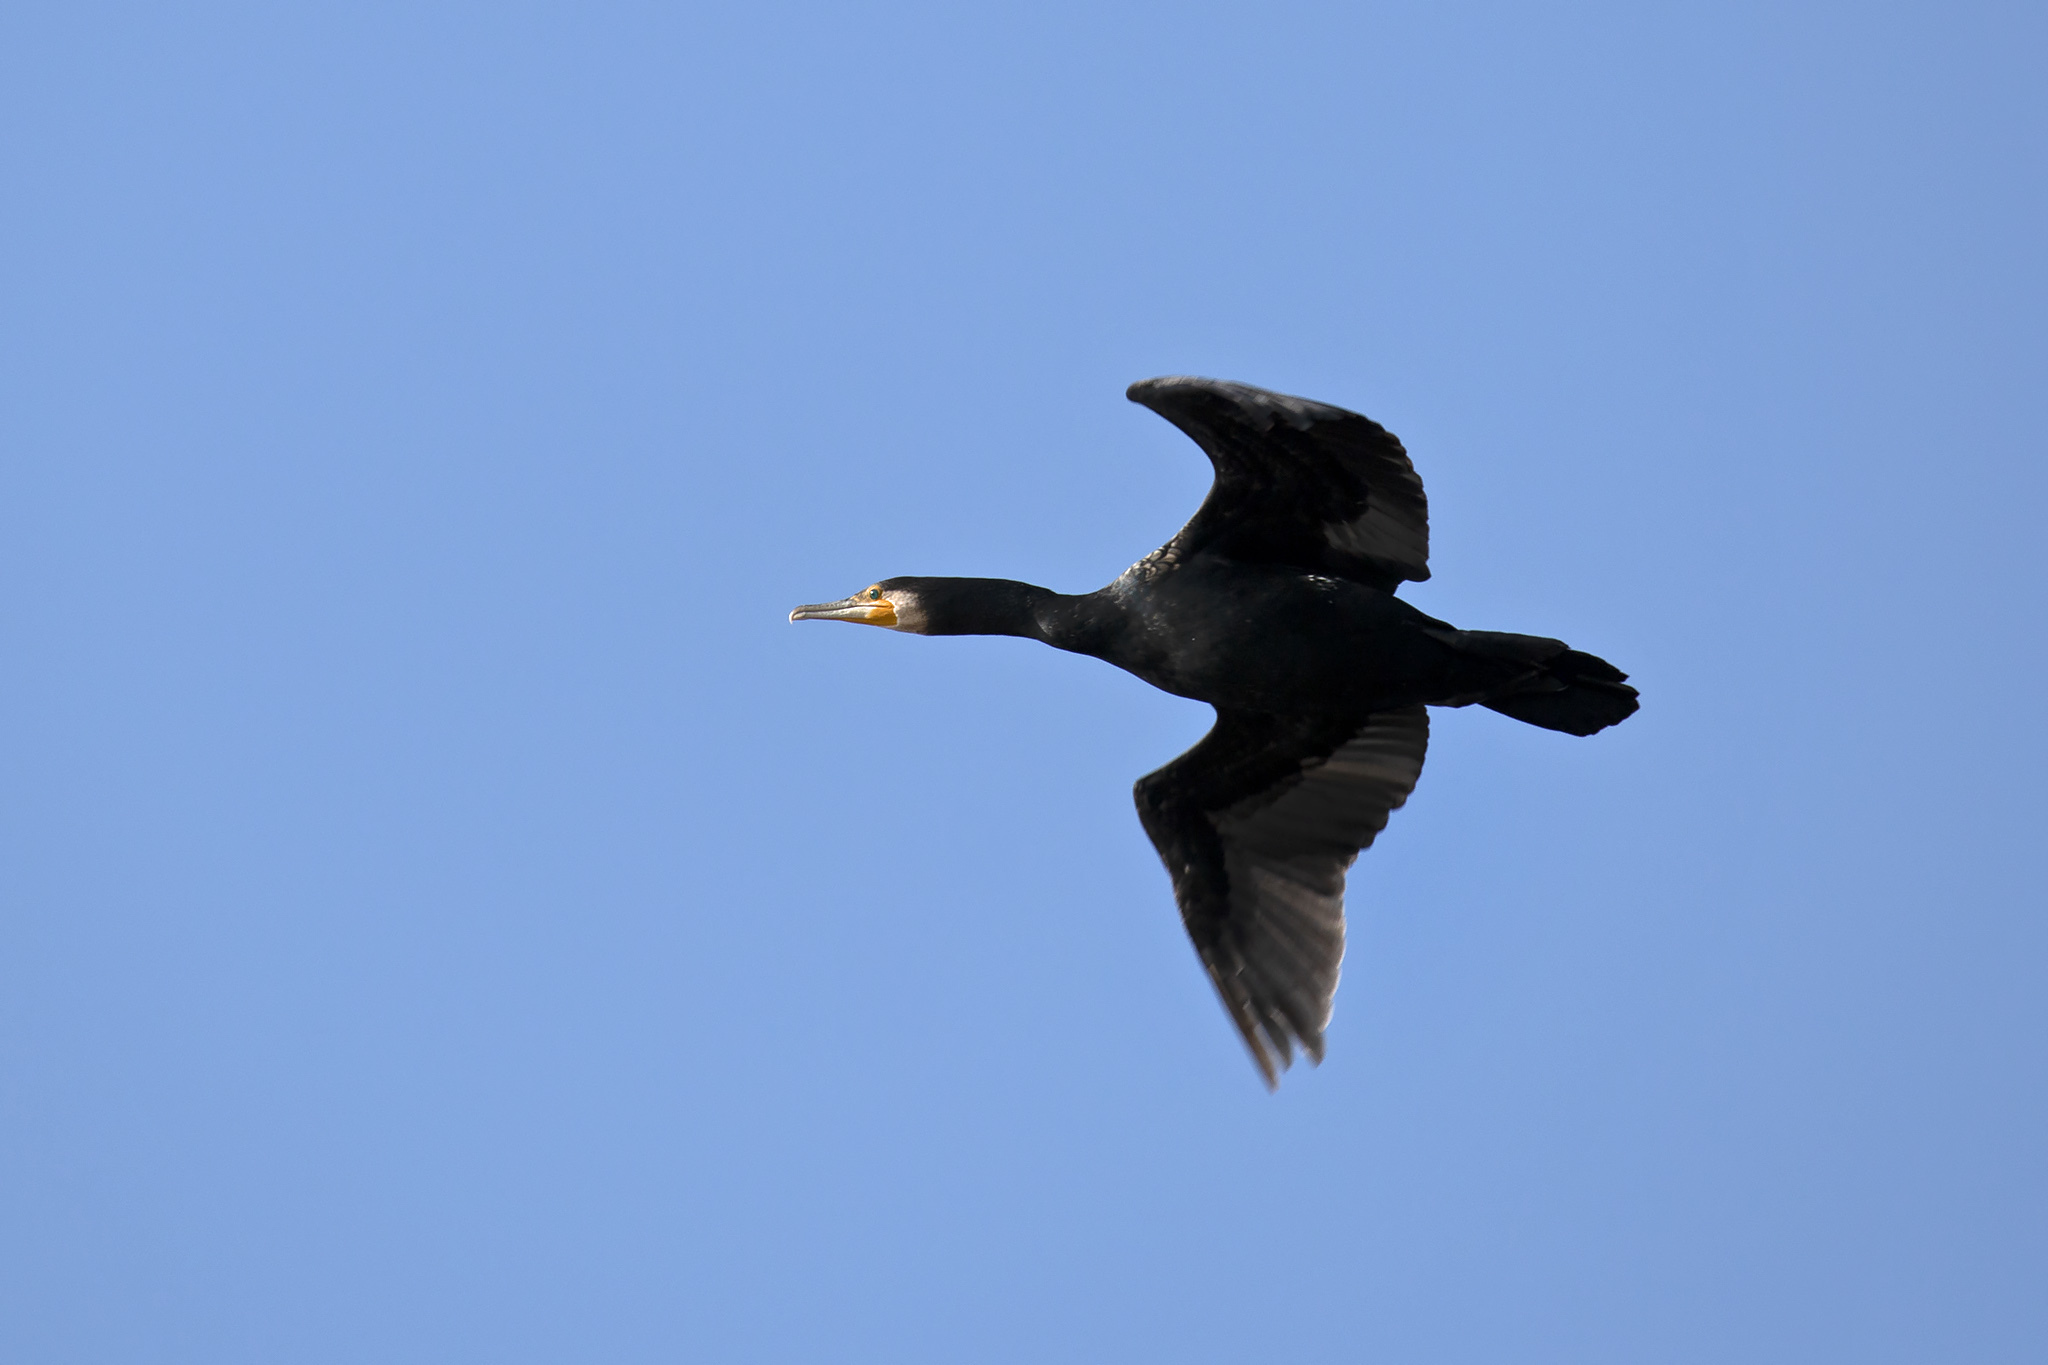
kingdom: Animalia
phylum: Chordata
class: Aves
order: Suliformes
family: Phalacrocoracidae
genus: Phalacrocorax
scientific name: Phalacrocorax carbo
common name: Great cormorant
